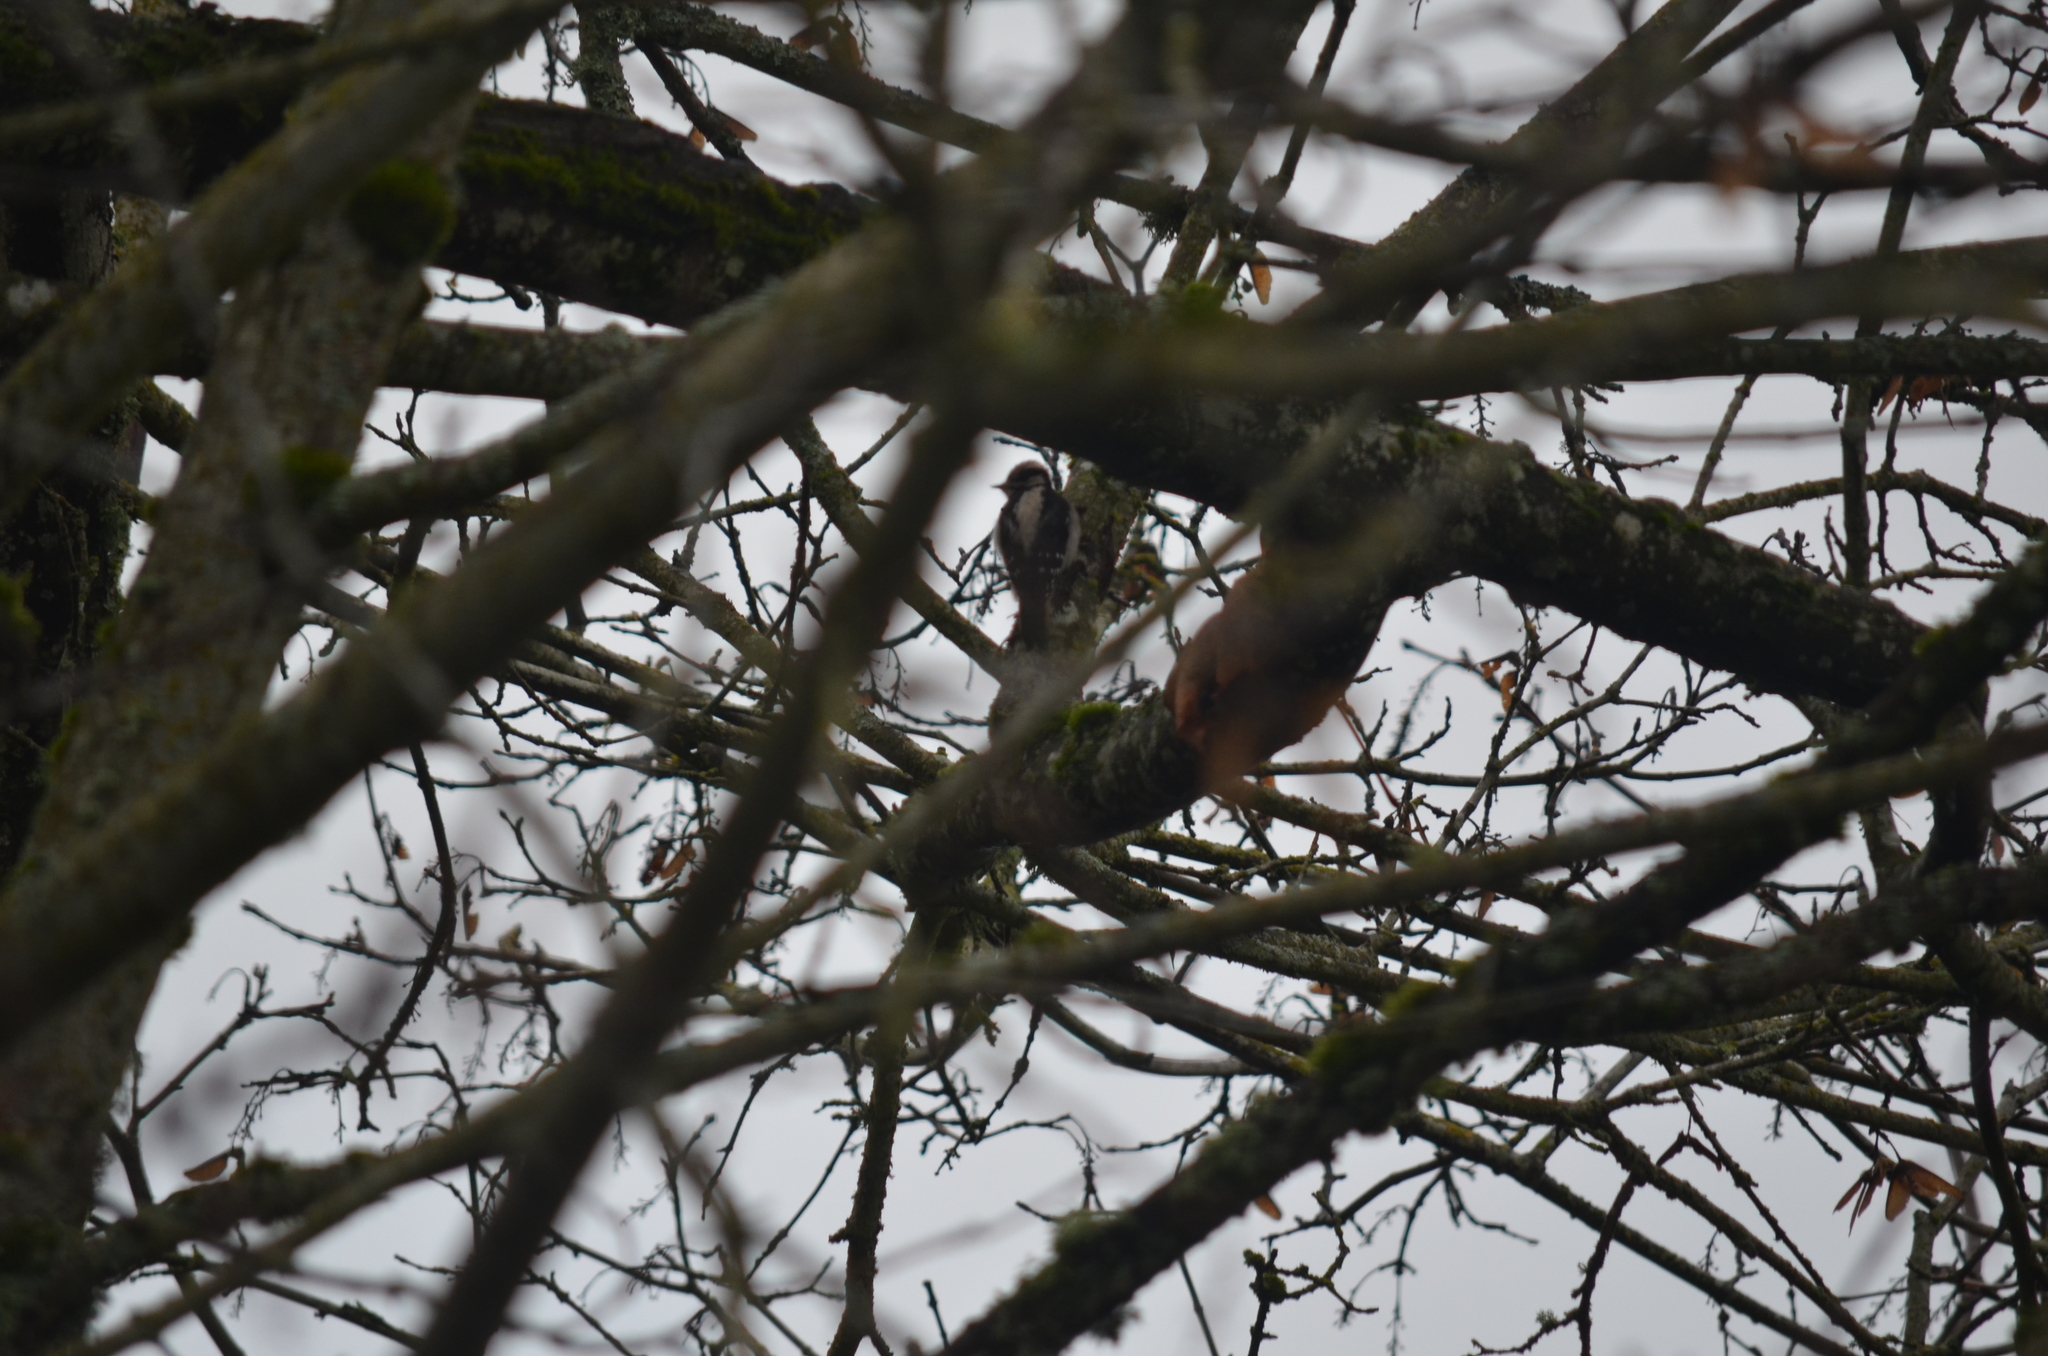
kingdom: Animalia
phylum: Chordata
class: Aves
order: Piciformes
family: Picidae
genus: Dryobates
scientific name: Dryobates pubescens
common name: Downy woodpecker
